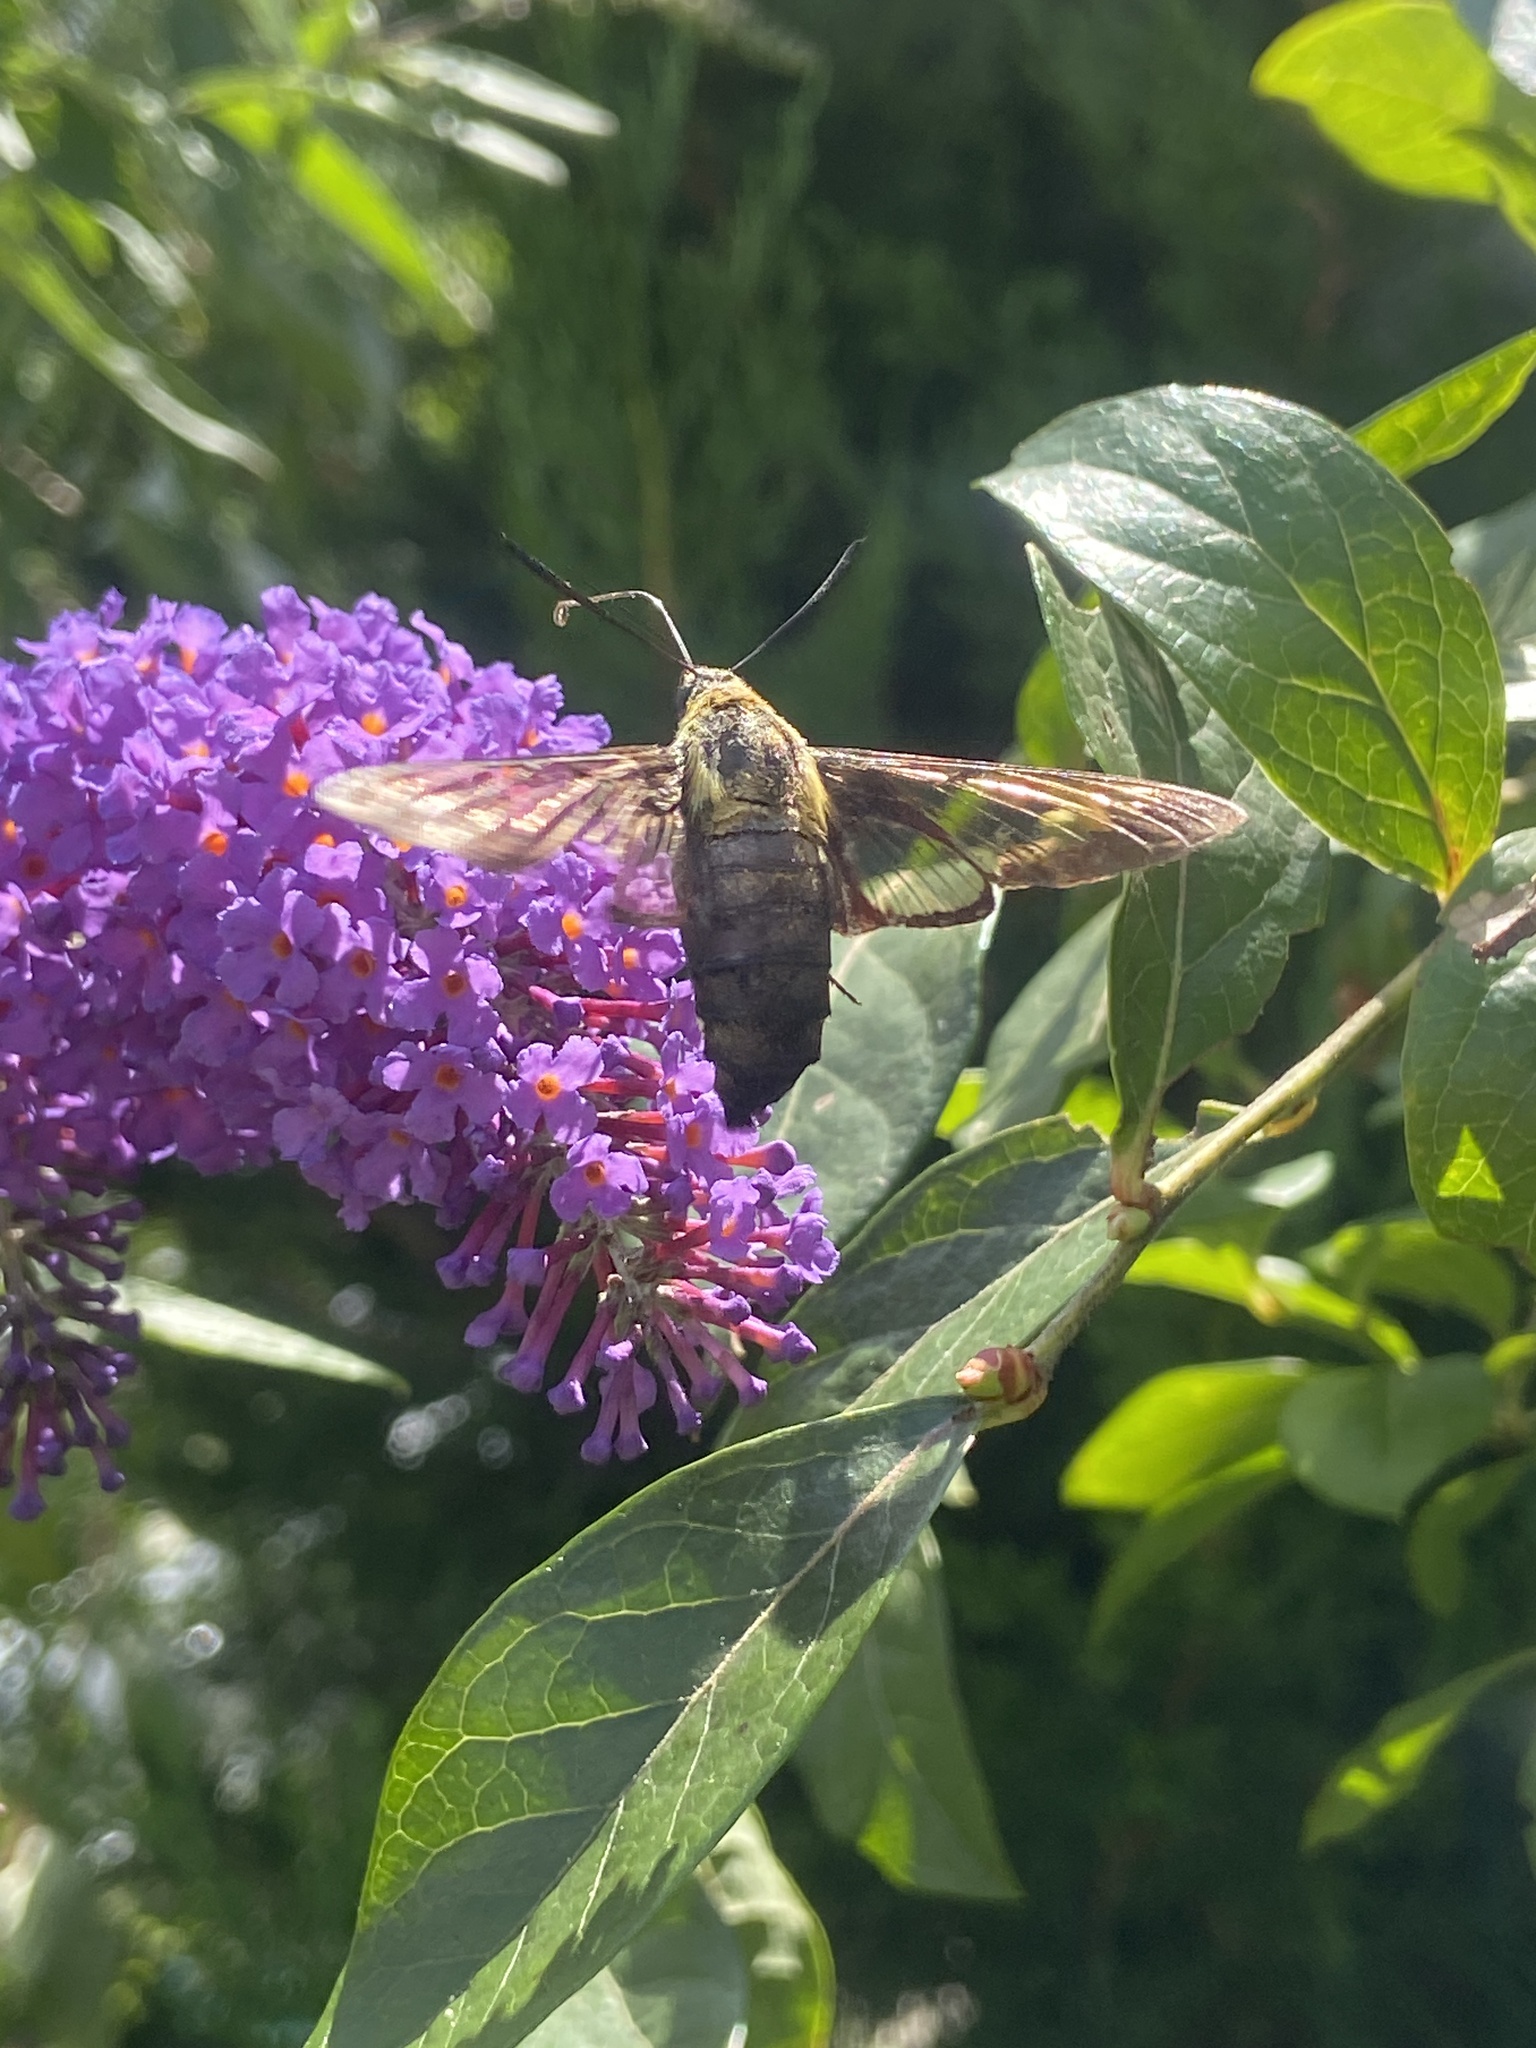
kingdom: Animalia
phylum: Arthropoda
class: Insecta
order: Lepidoptera
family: Sphingidae
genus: Hemaris
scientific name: Hemaris diffinis
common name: Bumblebee moth
